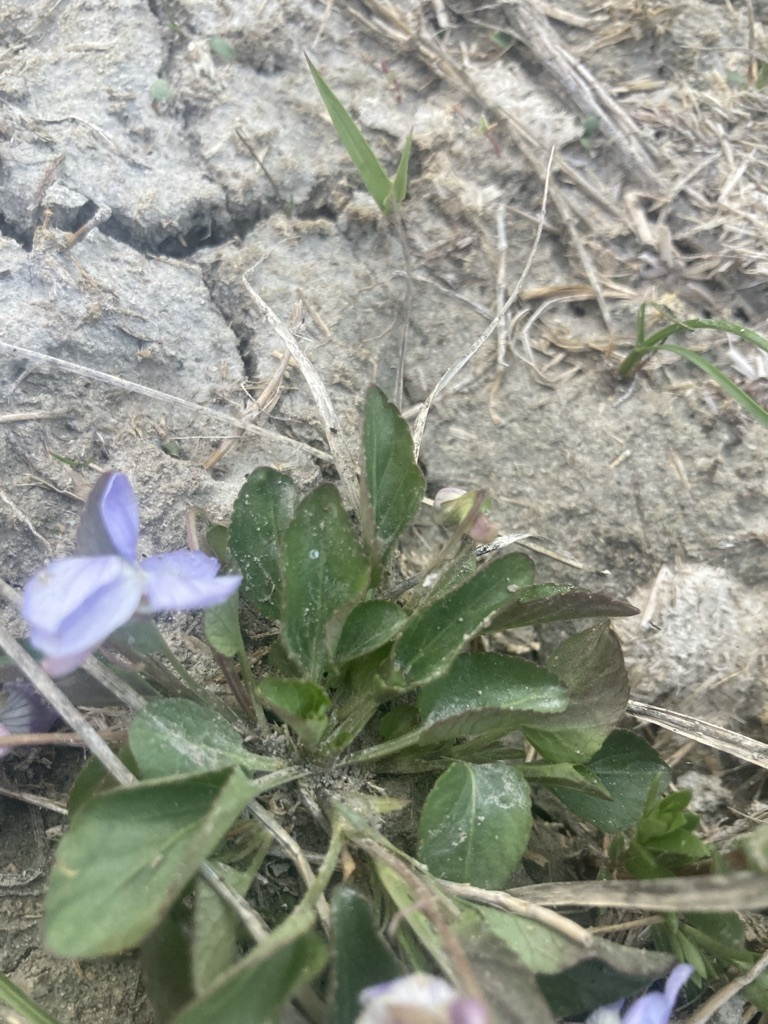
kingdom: Plantae
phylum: Tracheophyta
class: Magnoliopsida
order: Malpighiales
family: Violaceae
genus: Viola
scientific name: Viola adunca
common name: Sand violet
